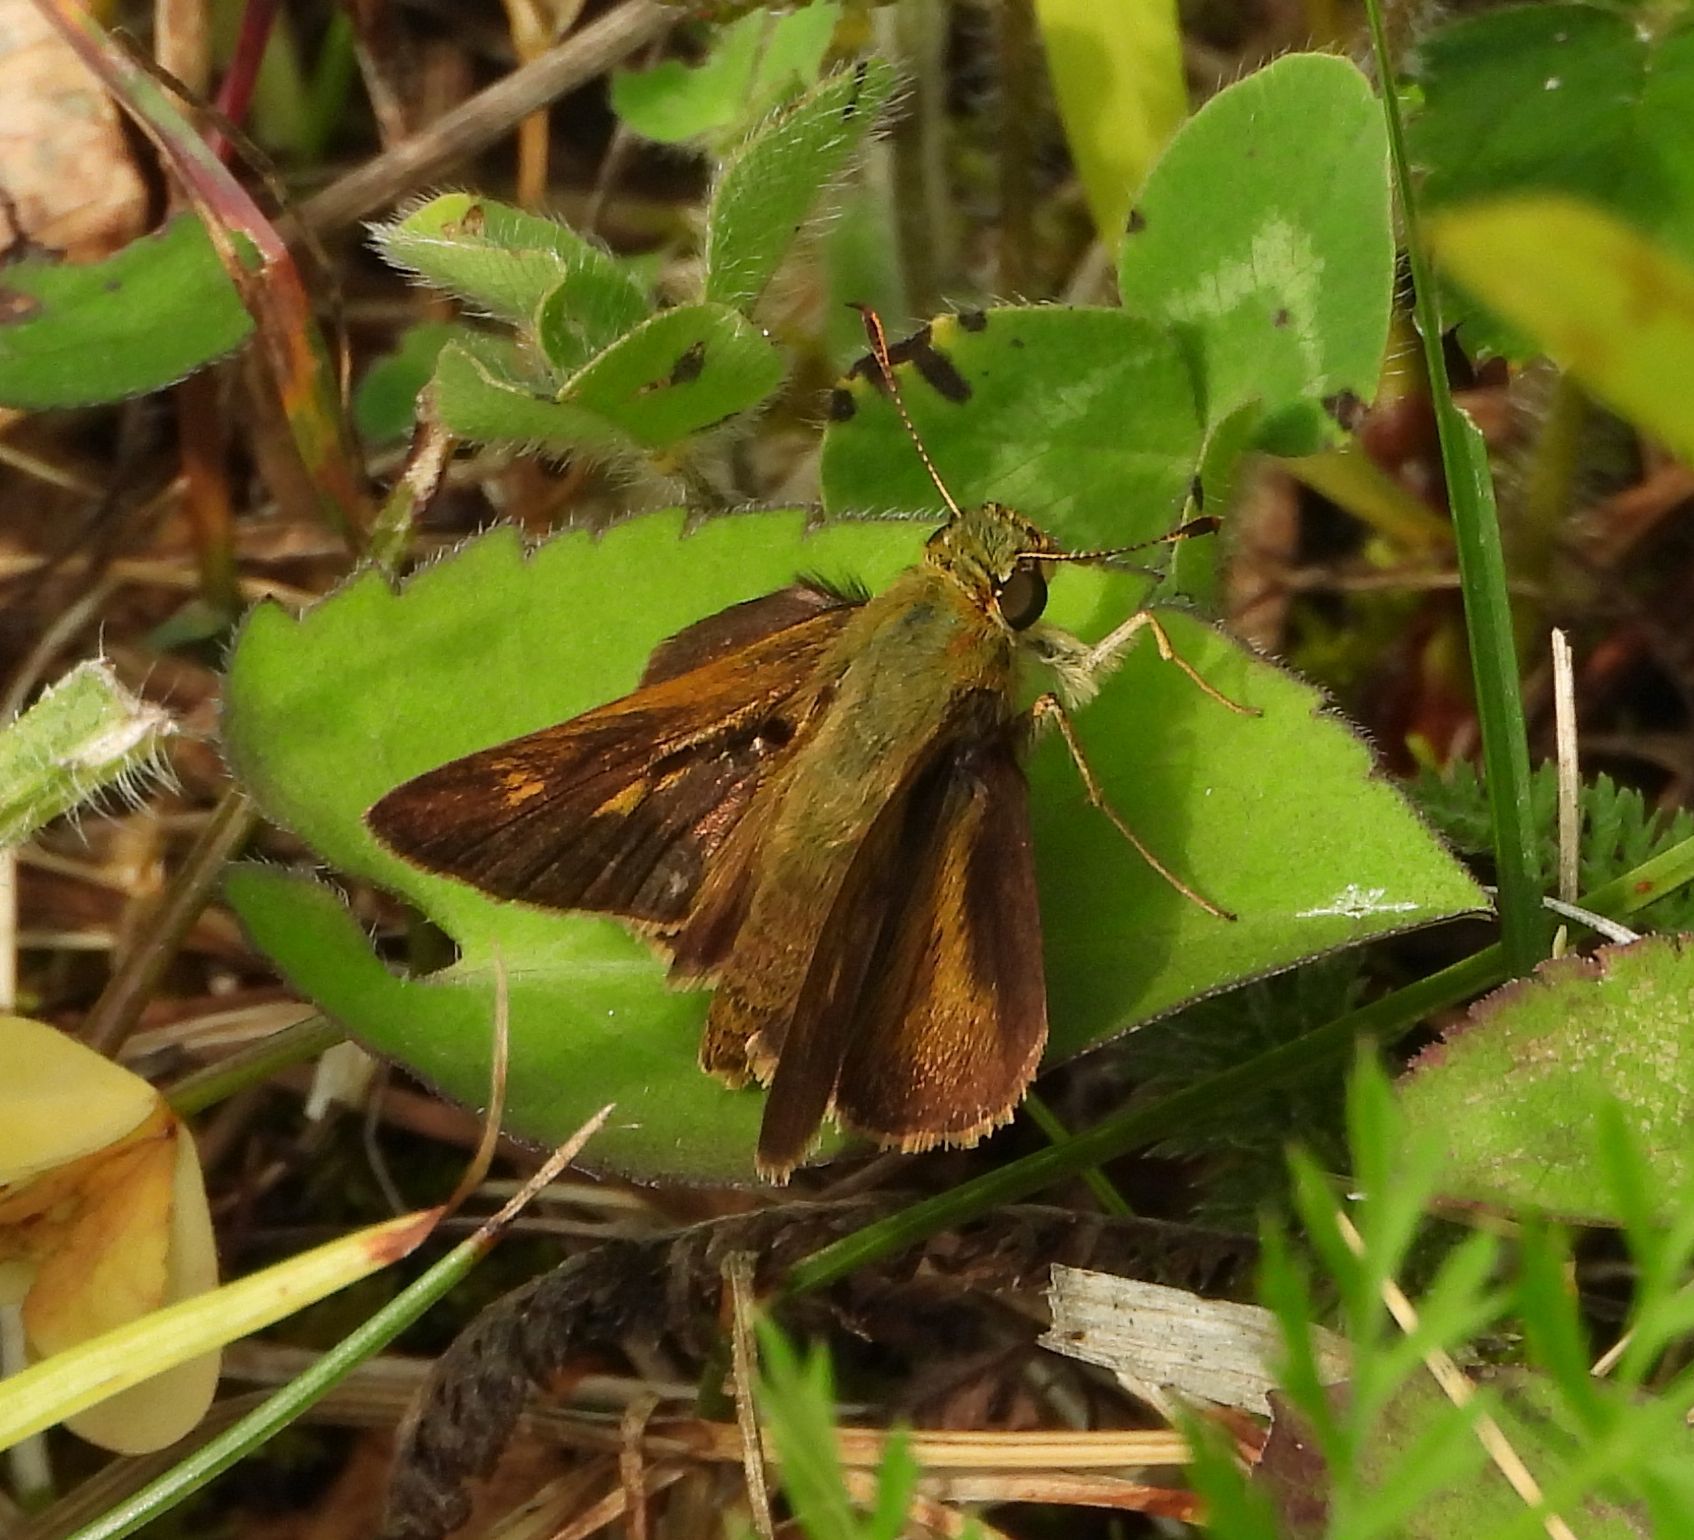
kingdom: Animalia
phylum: Arthropoda
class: Insecta
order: Lepidoptera
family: Hesperiidae
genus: Polites
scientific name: Polites egeremet
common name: Northern broken-dash
